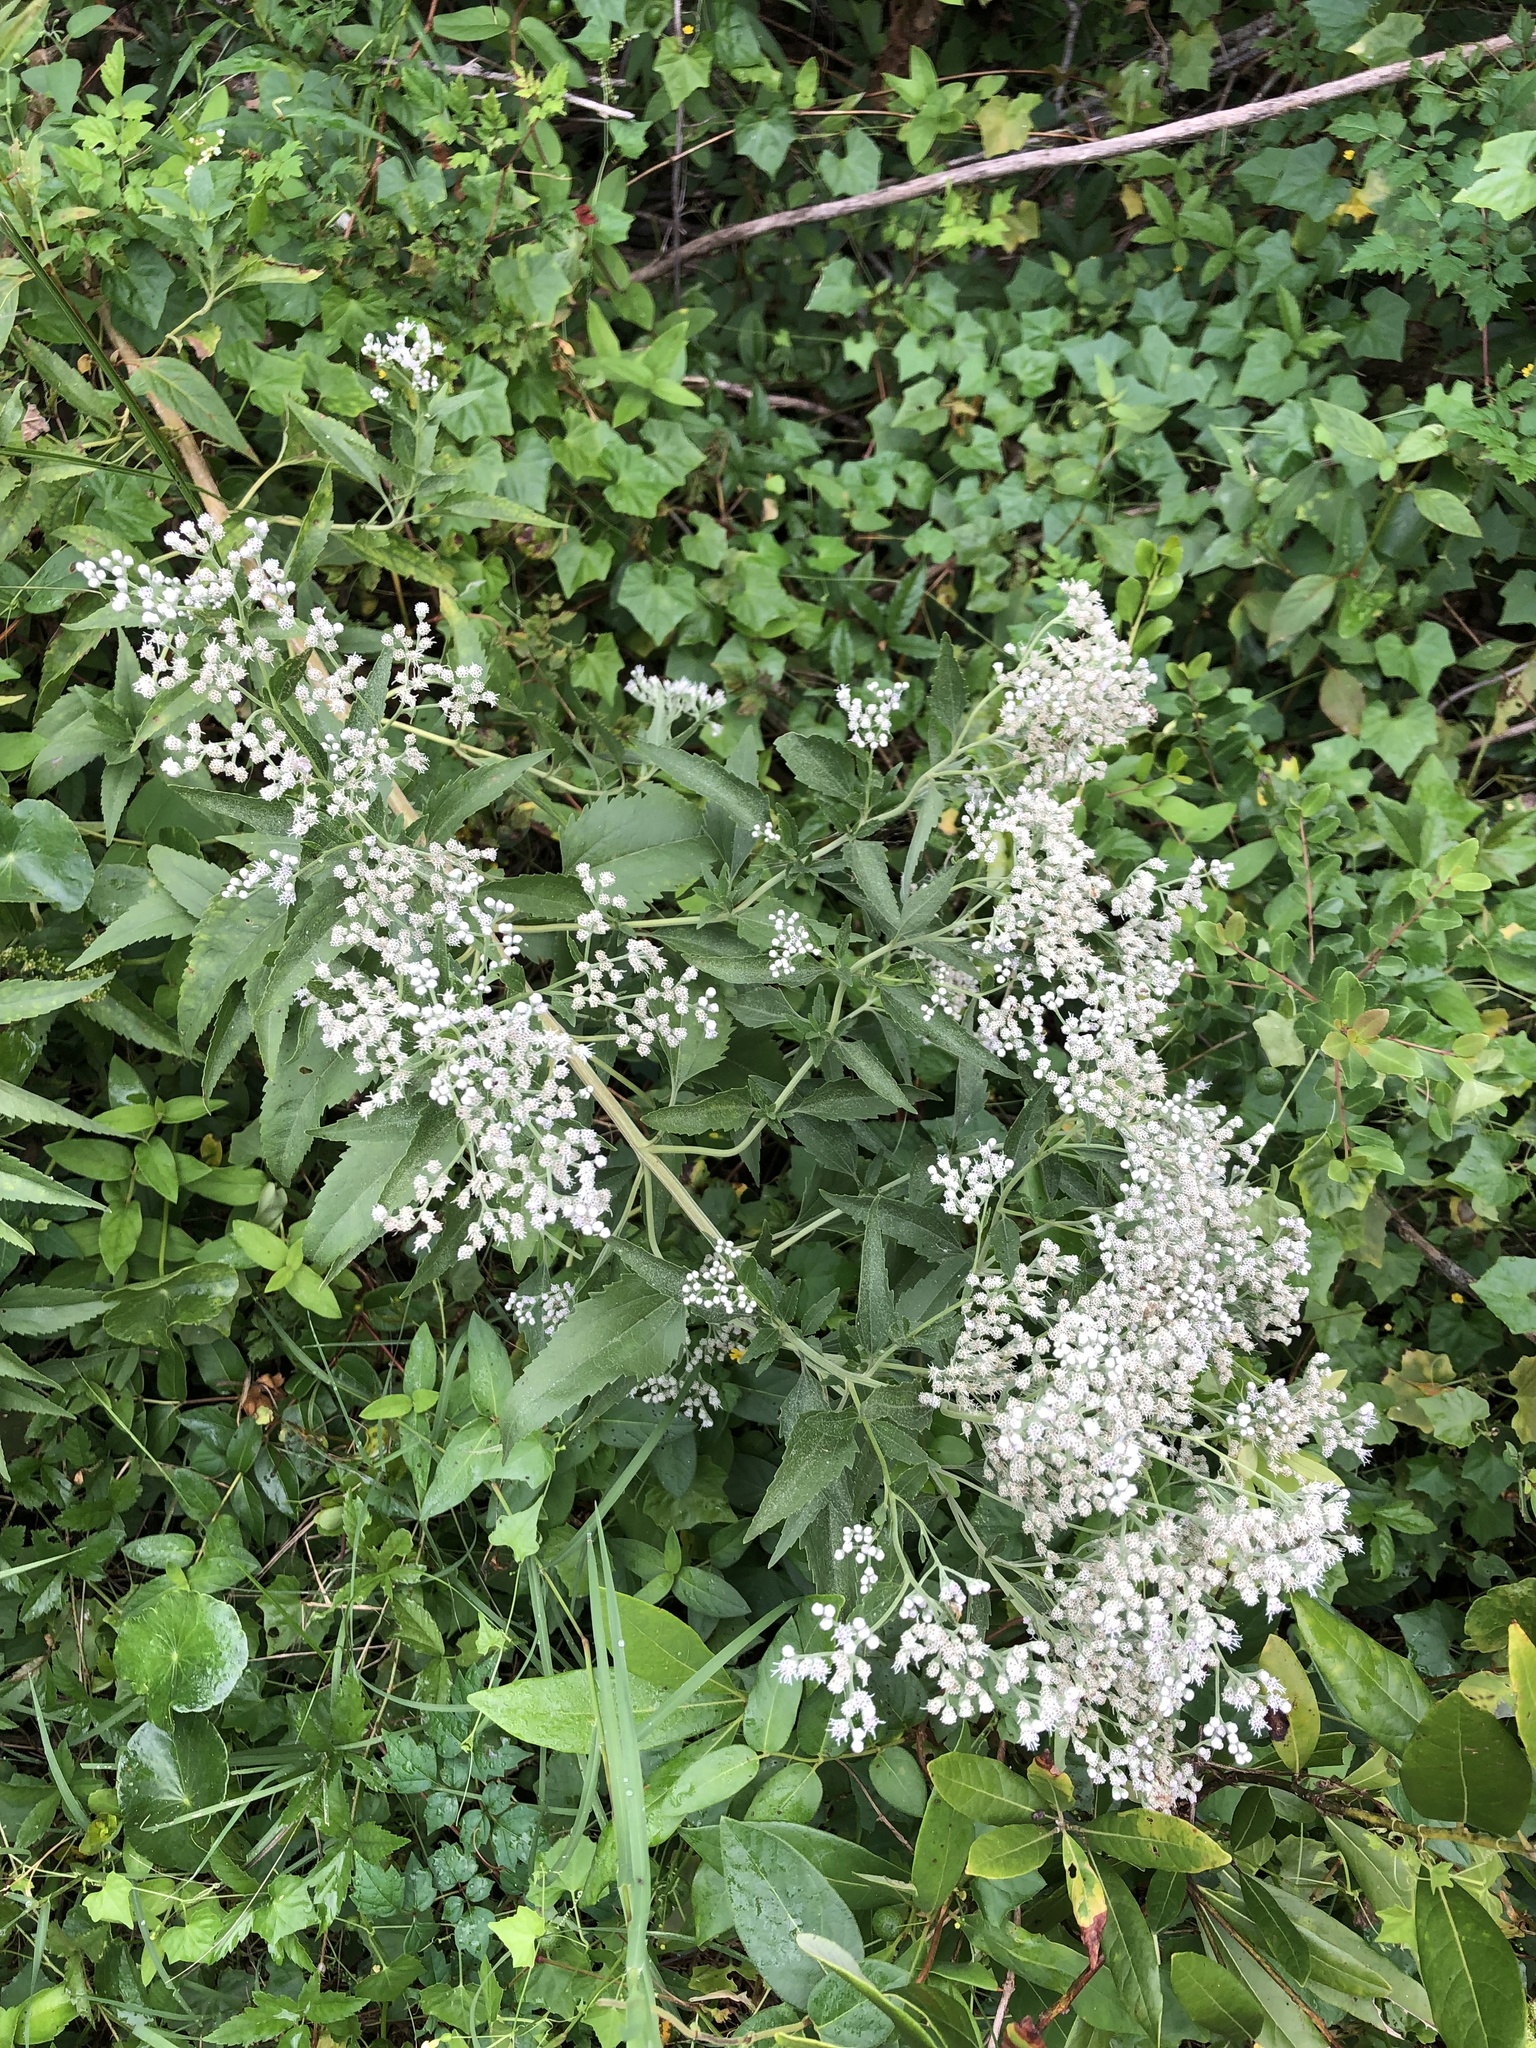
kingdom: Plantae
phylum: Tracheophyta
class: Magnoliopsida
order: Asterales
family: Asteraceae
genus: Eupatorium
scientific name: Eupatorium serotinum
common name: Late boneset
